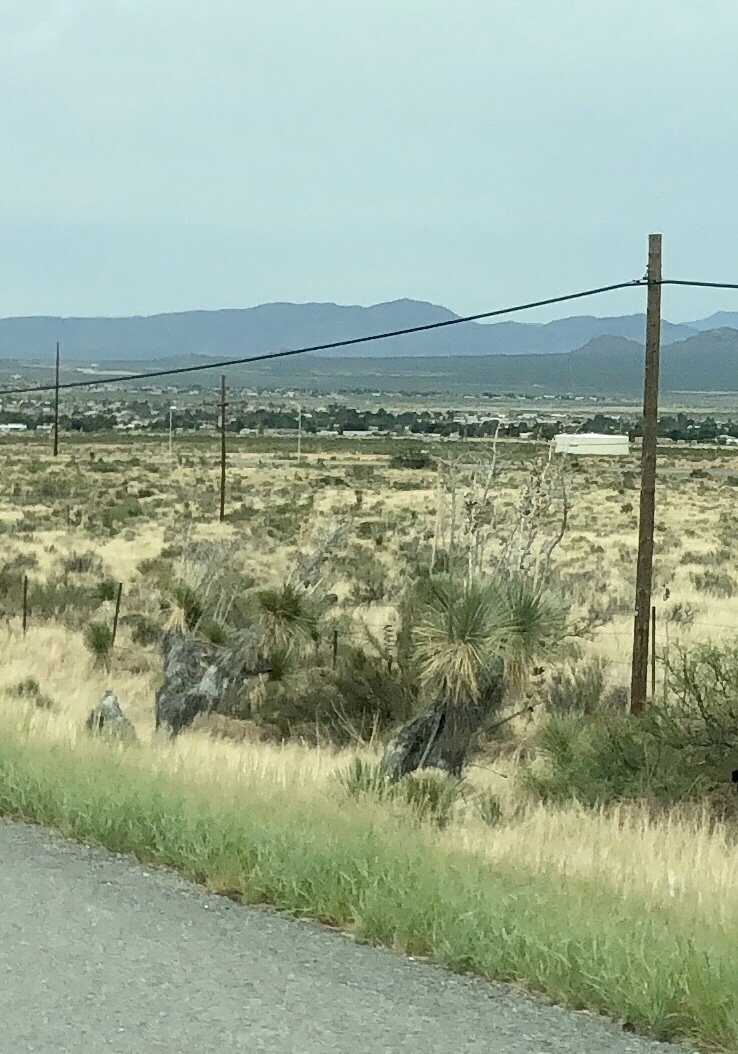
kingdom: Plantae
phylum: Tracheophyta
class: Liliopsida
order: Asparagales
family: Asparagaceae
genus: Yucca
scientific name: Yucca elata
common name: Palmella
